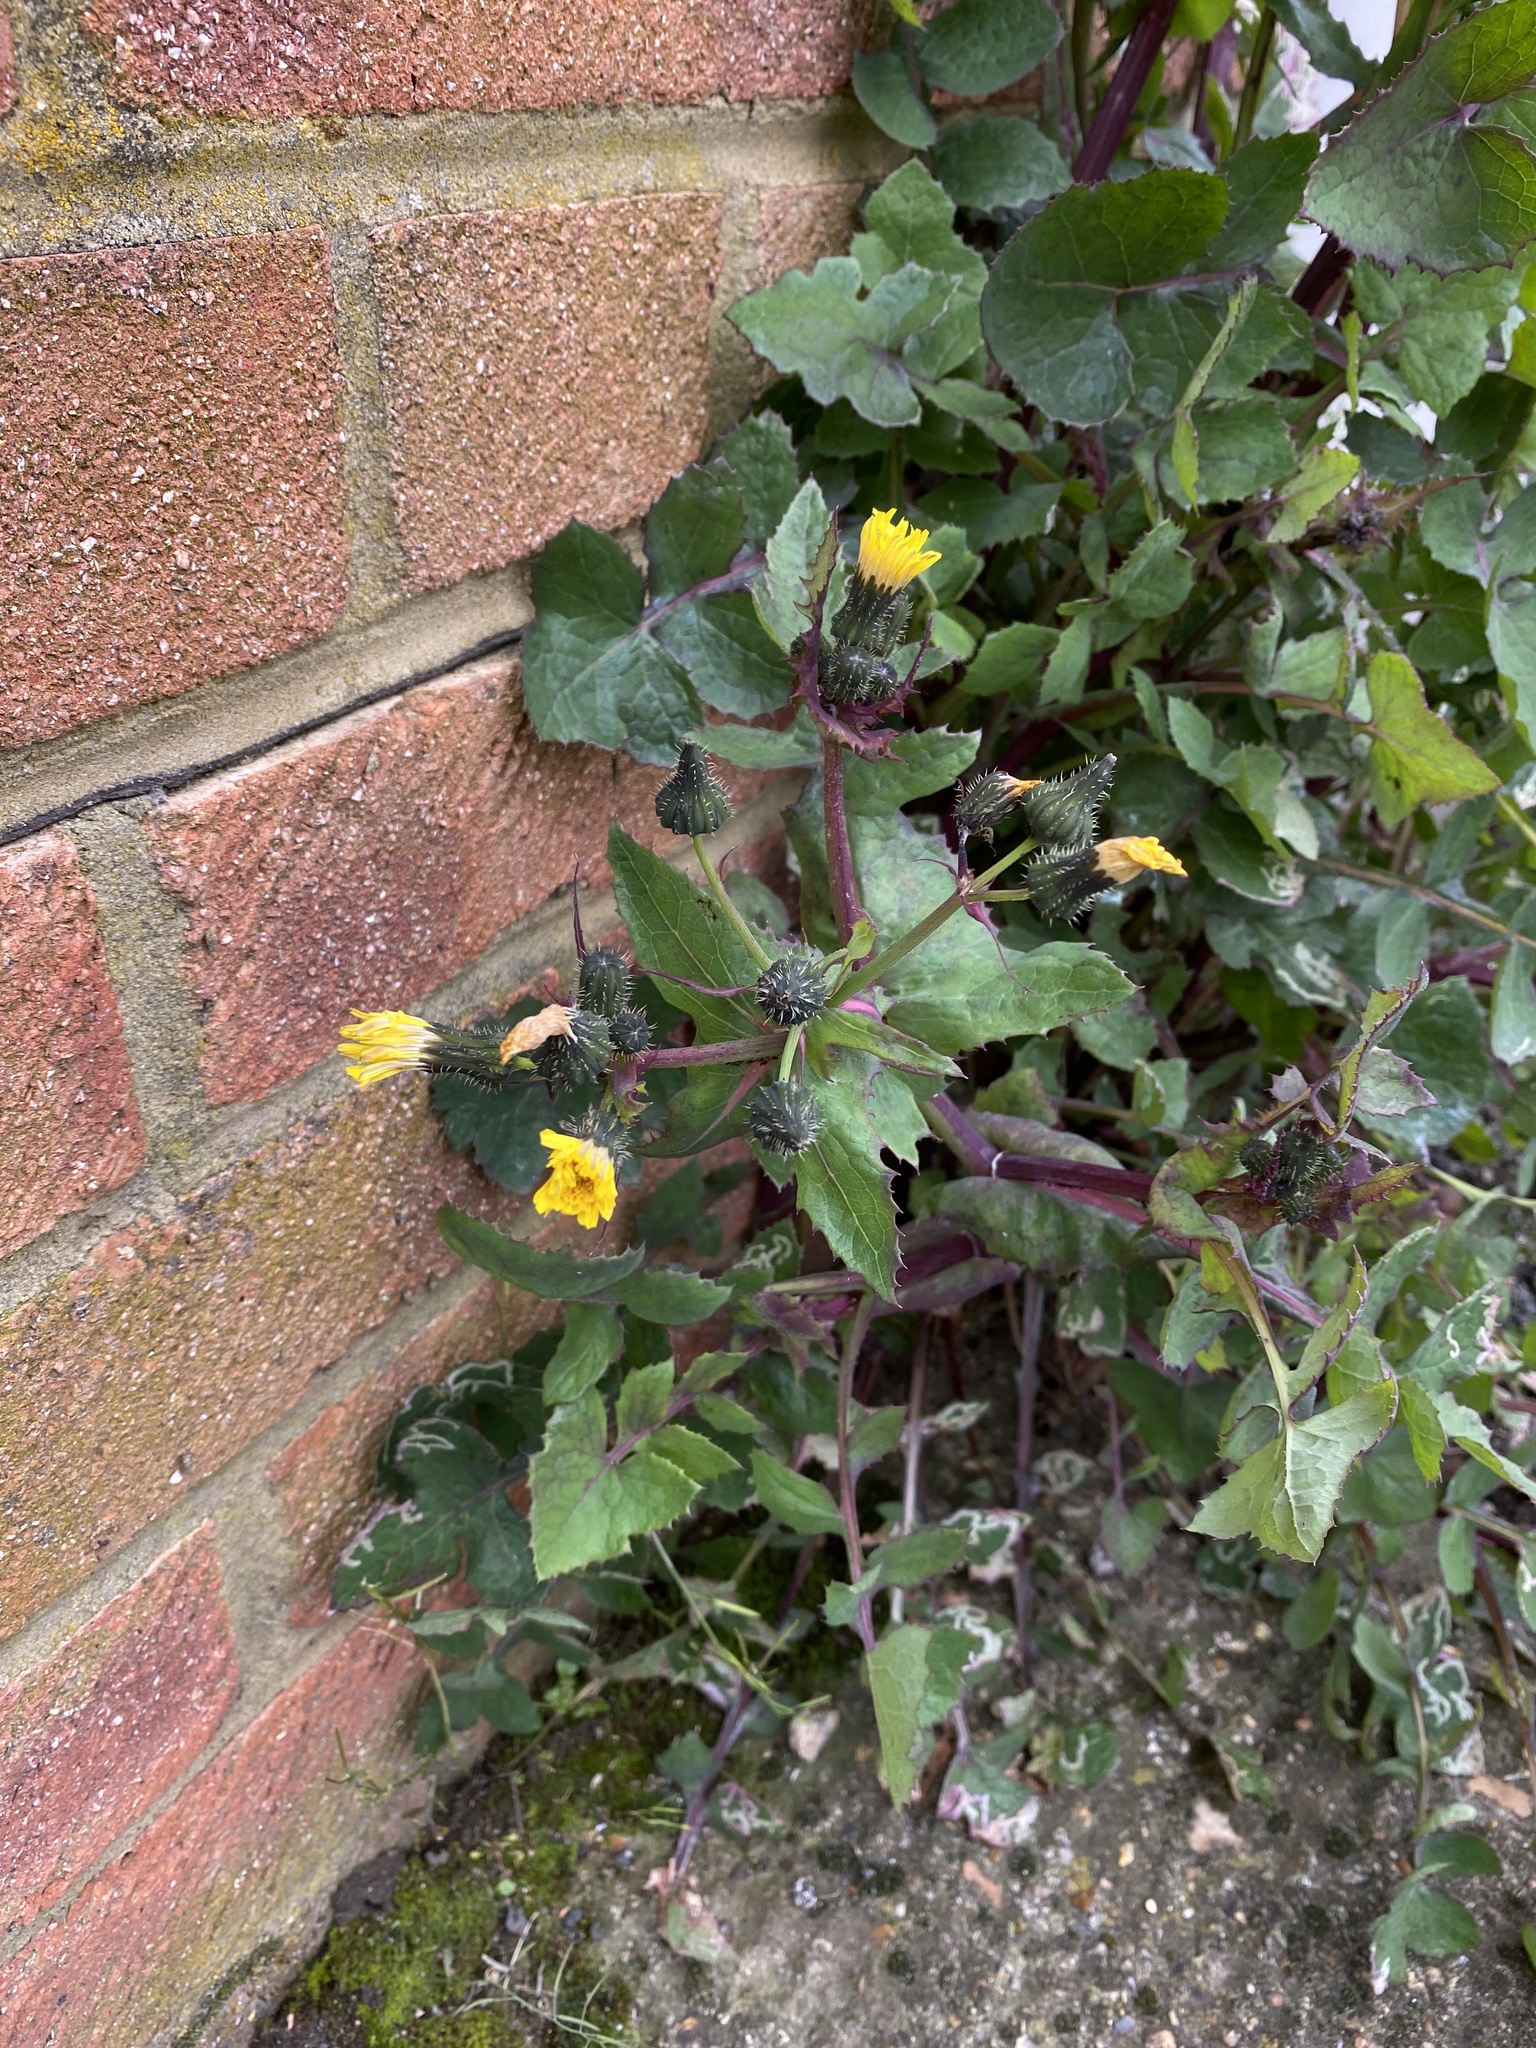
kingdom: Plantae
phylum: Tracheophyta
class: Magnoliopsida
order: Asterales
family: Asteraceae
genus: Sonchus
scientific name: Sonchus oleraceus
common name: Common sowthistle
